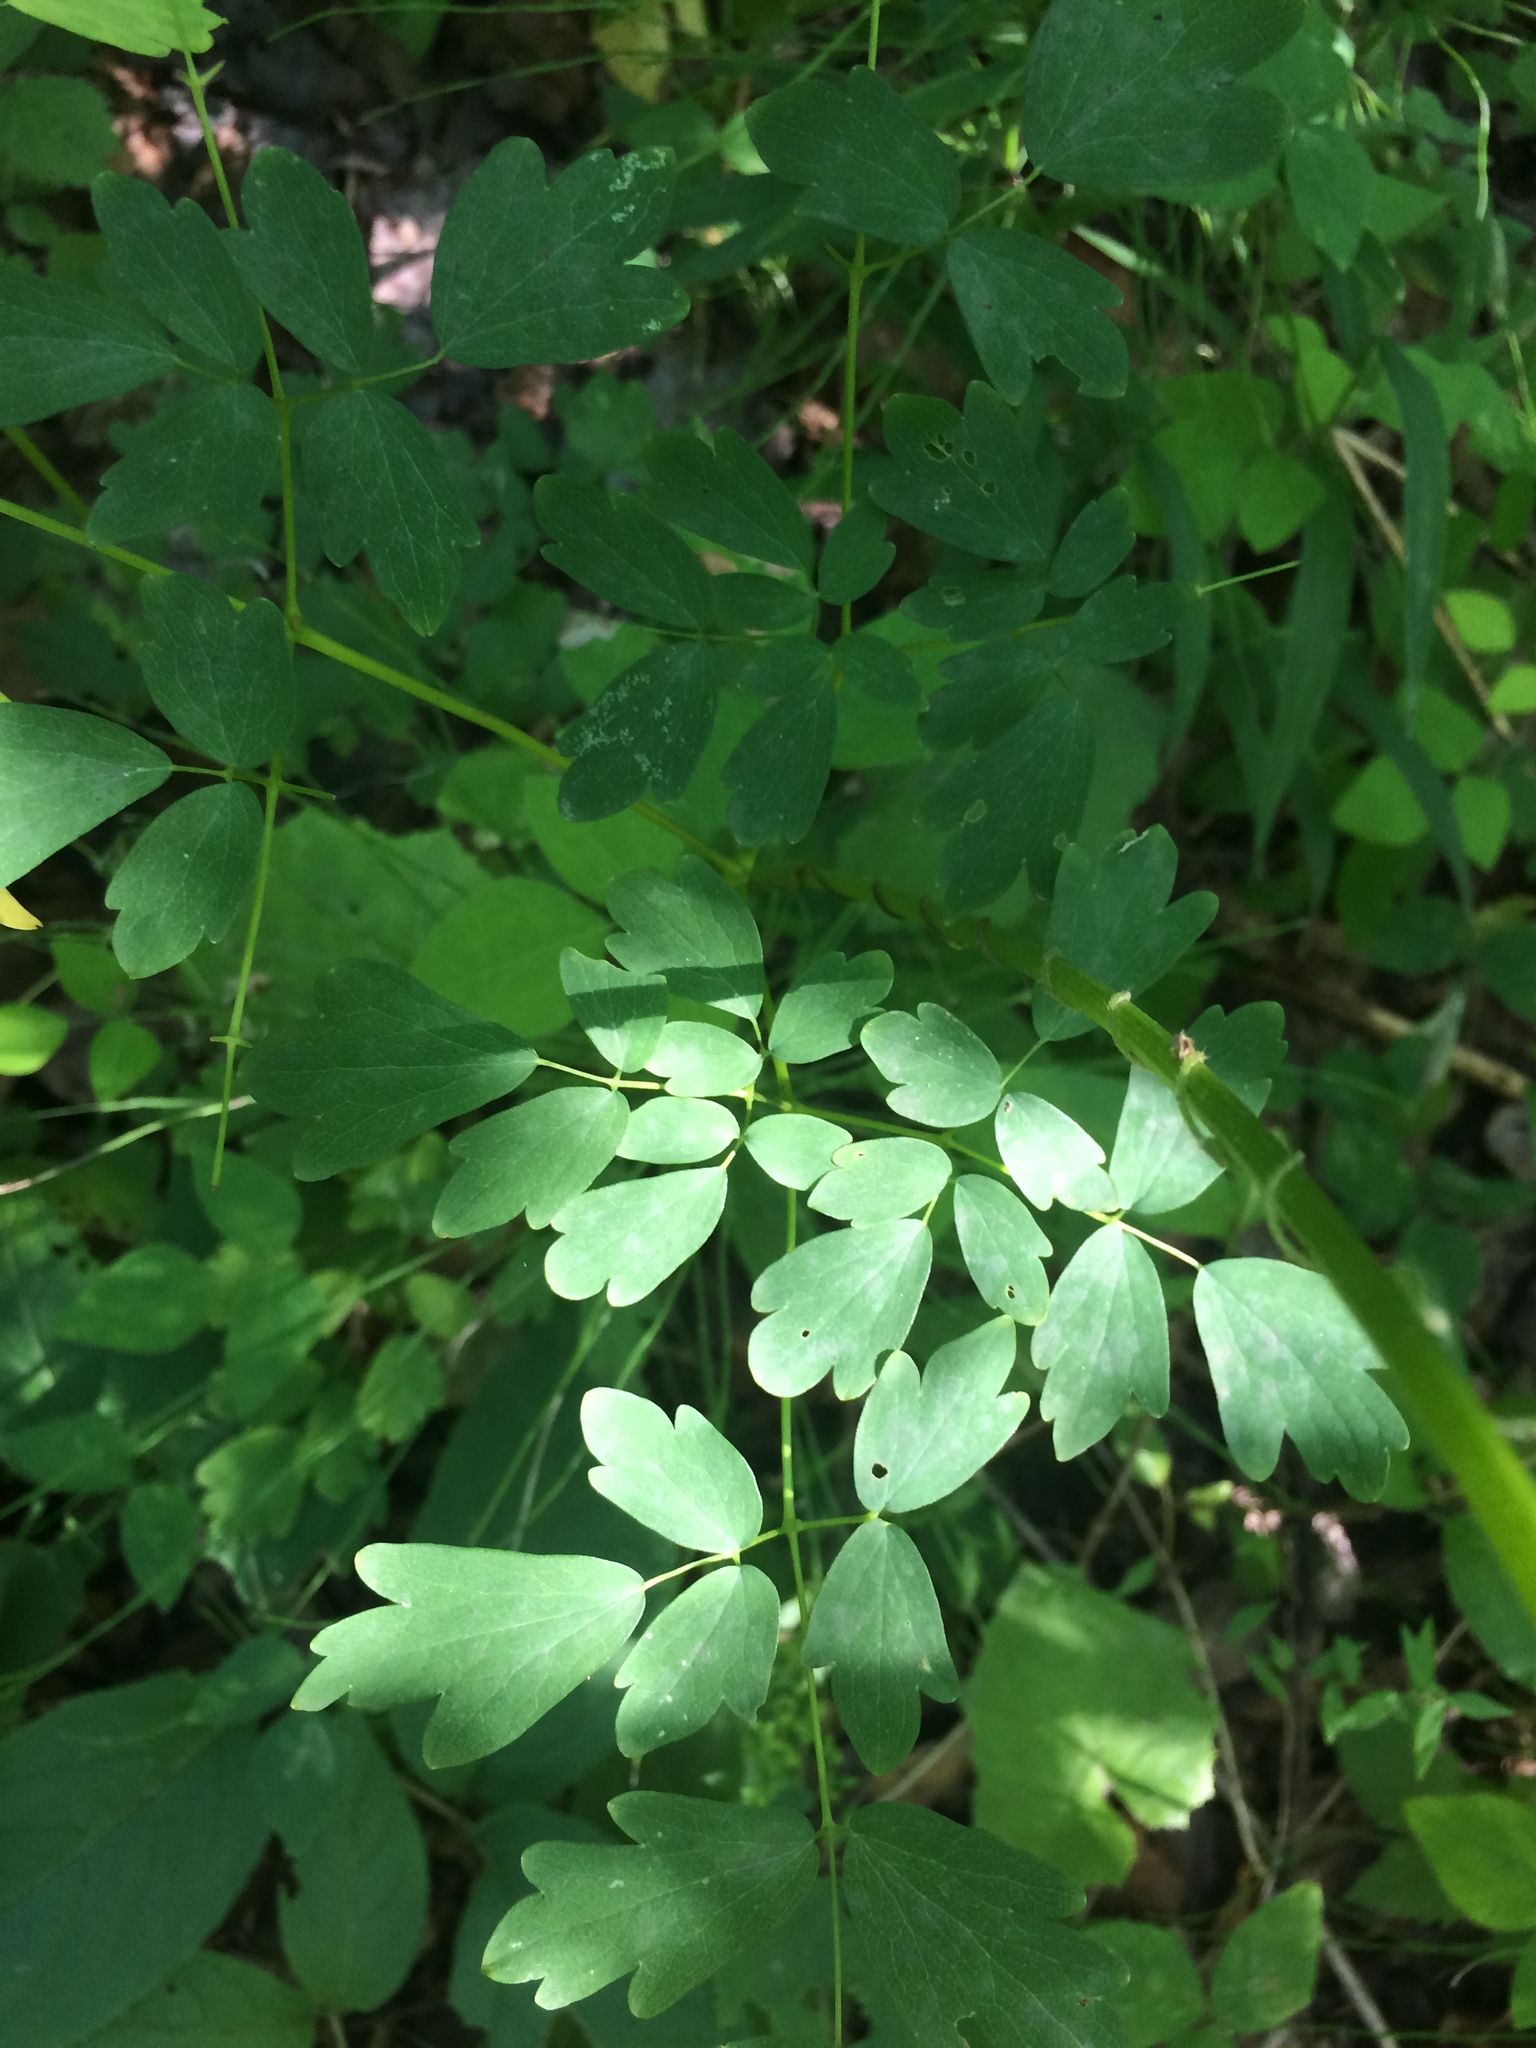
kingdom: Plantae
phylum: Tracheophyta
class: Magnoliopsida
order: Ranunculales
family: Ranunculaceae
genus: Thalictrum
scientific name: Thalictrum pubescens
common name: King-of-the-meadow
